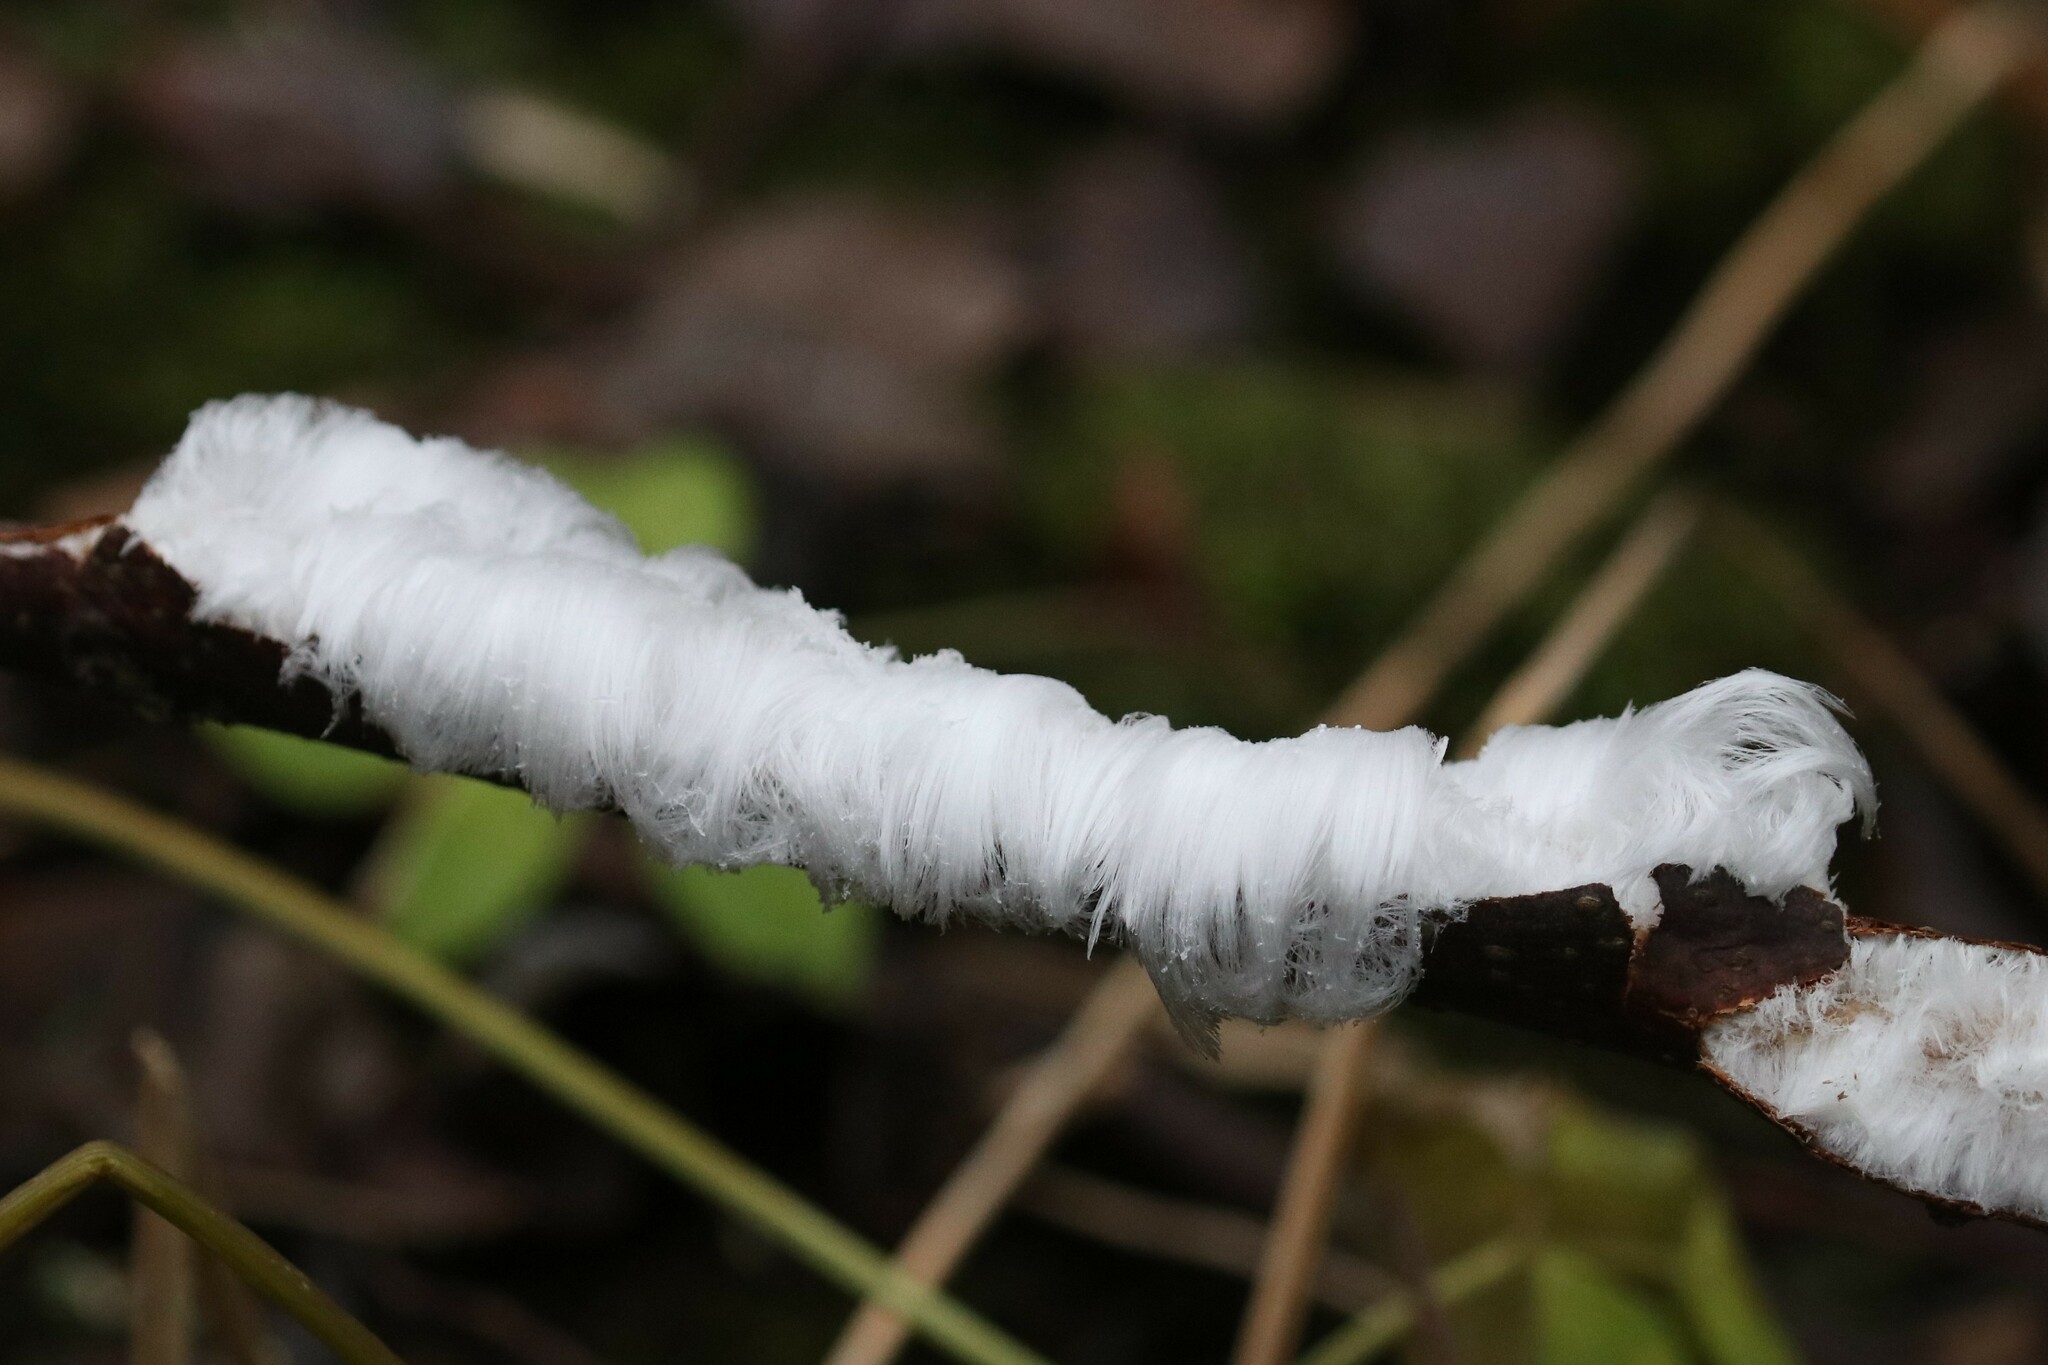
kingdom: Fungi
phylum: Basidiomycota
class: Agaricomycetes
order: Auriculariales
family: Auriculariaceae
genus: Exidiopsis
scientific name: Exidiopsis effusa
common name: Hair ice crust
